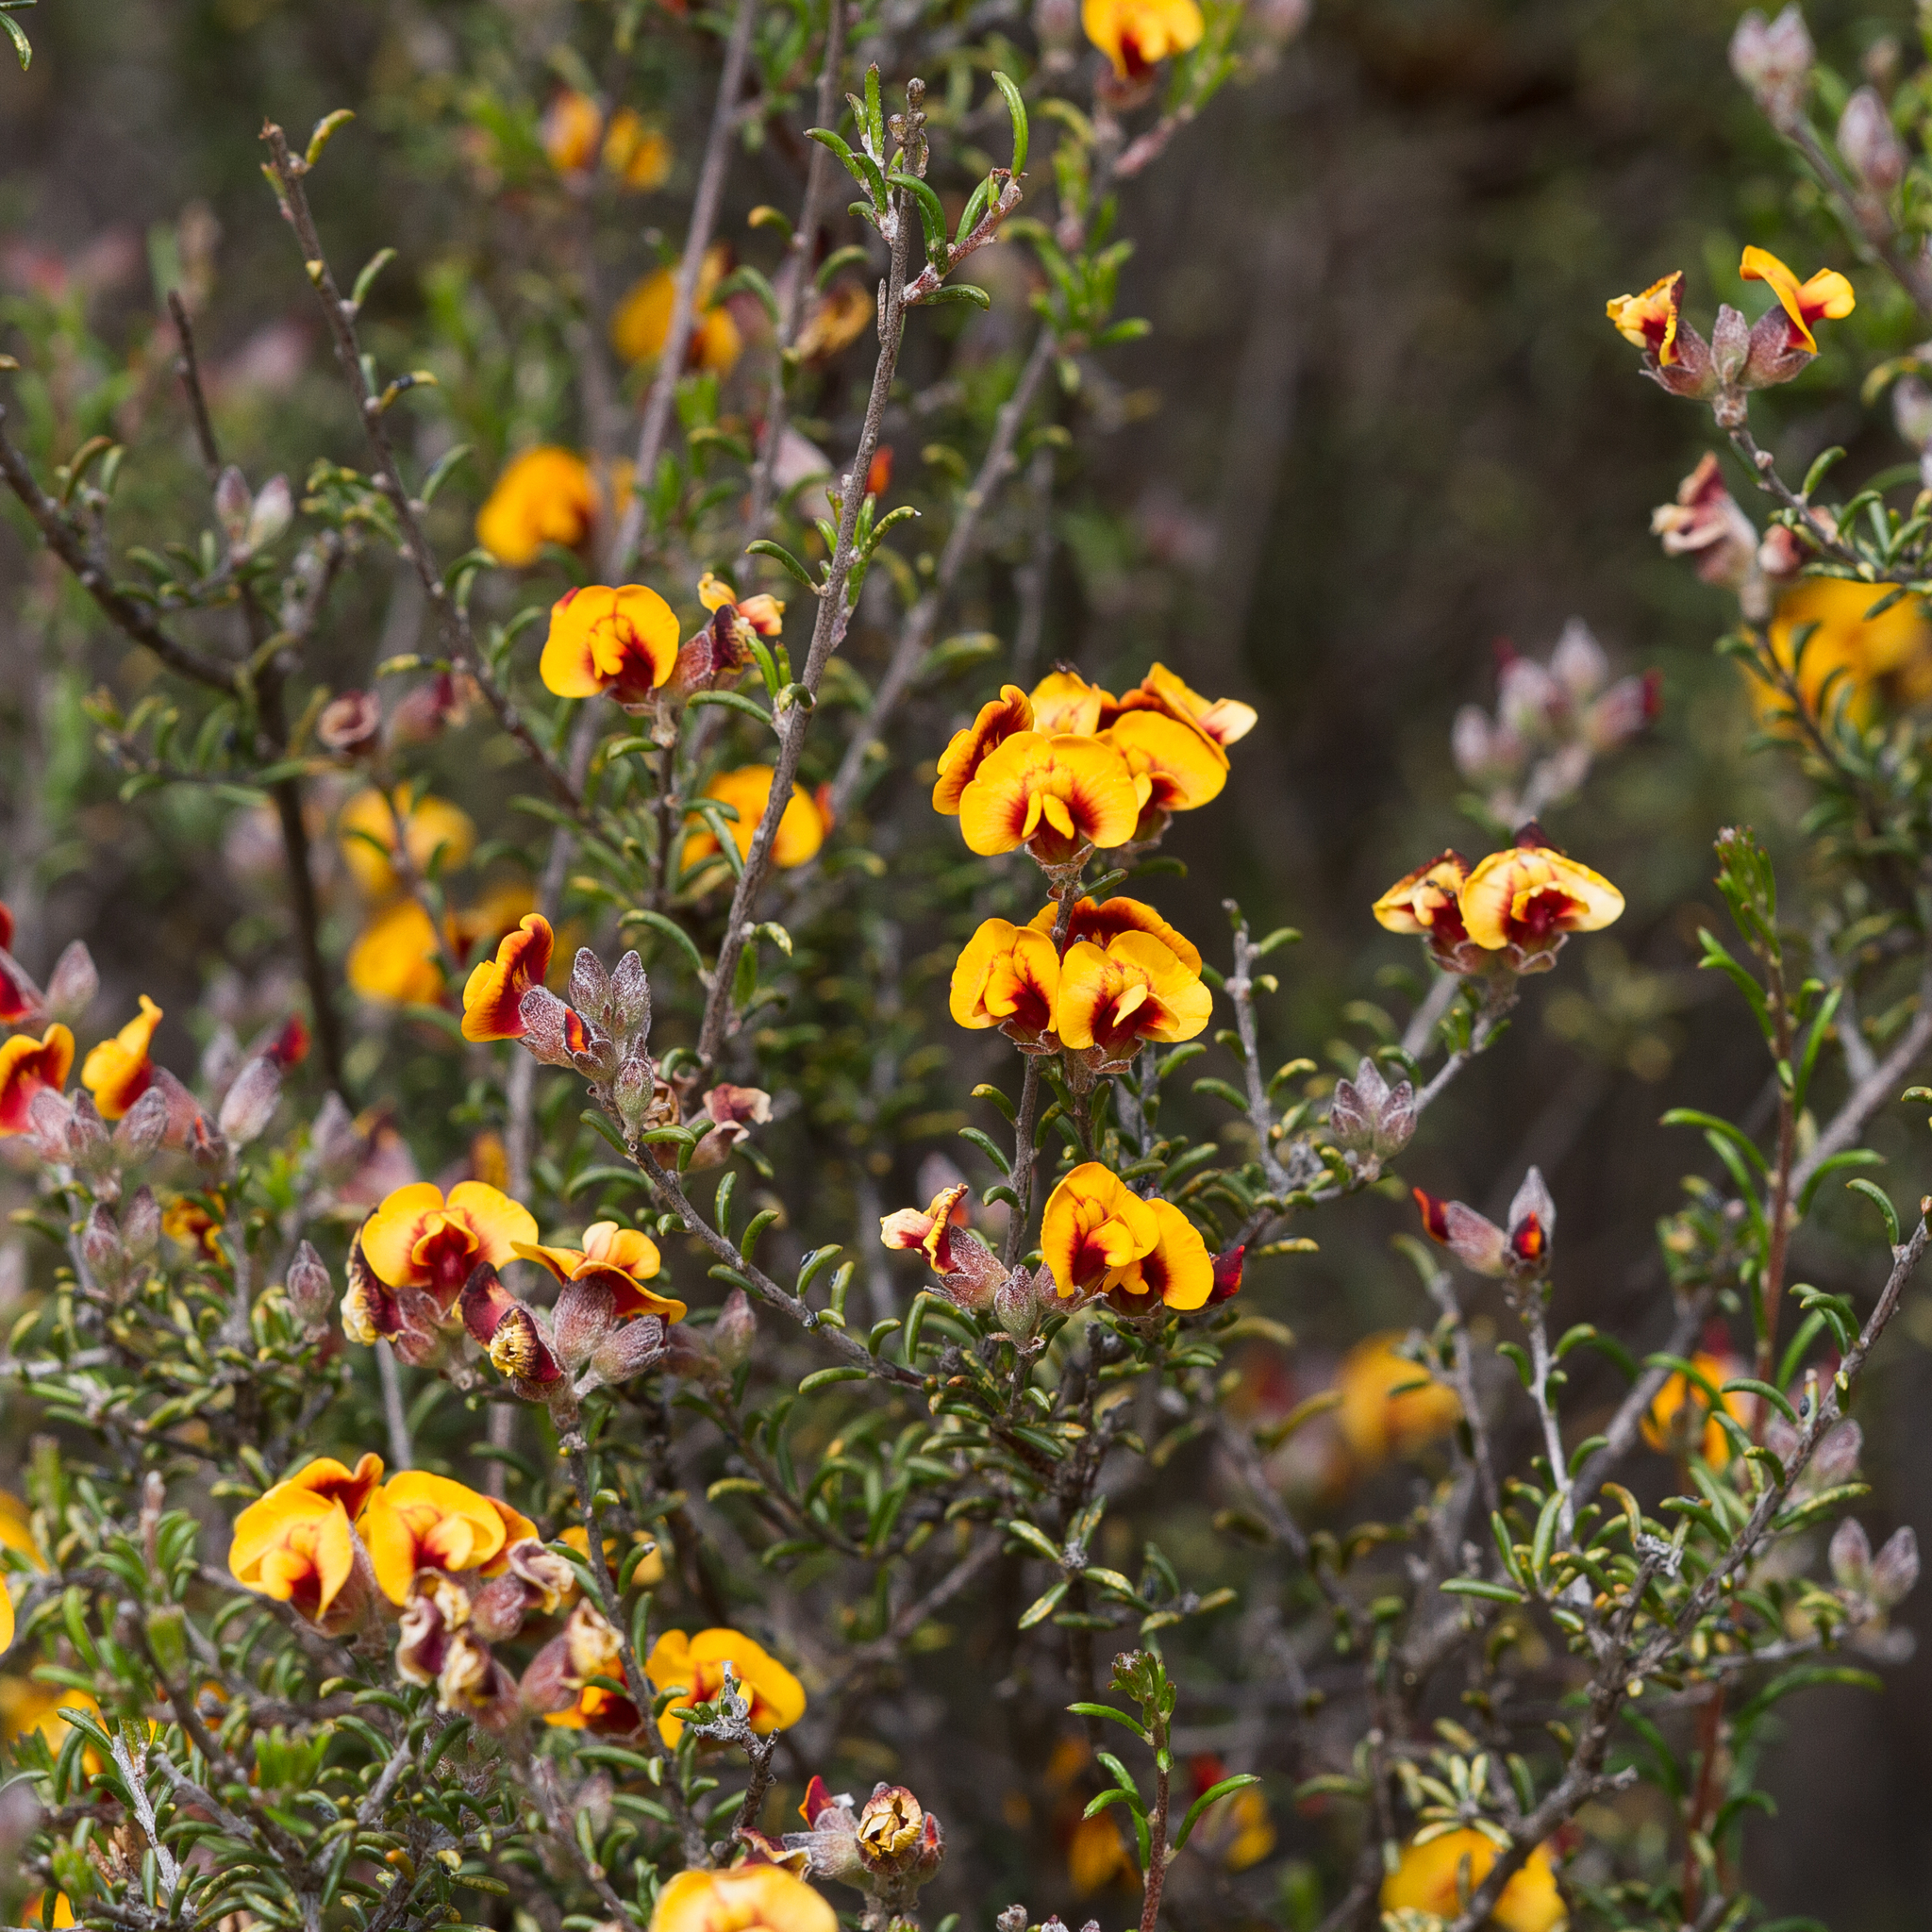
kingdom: Plantae
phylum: Tracheophyta
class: Magnoliopsida
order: Fabales
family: Fabaceae
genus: Dillwynia
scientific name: Dillwynia uncinata
